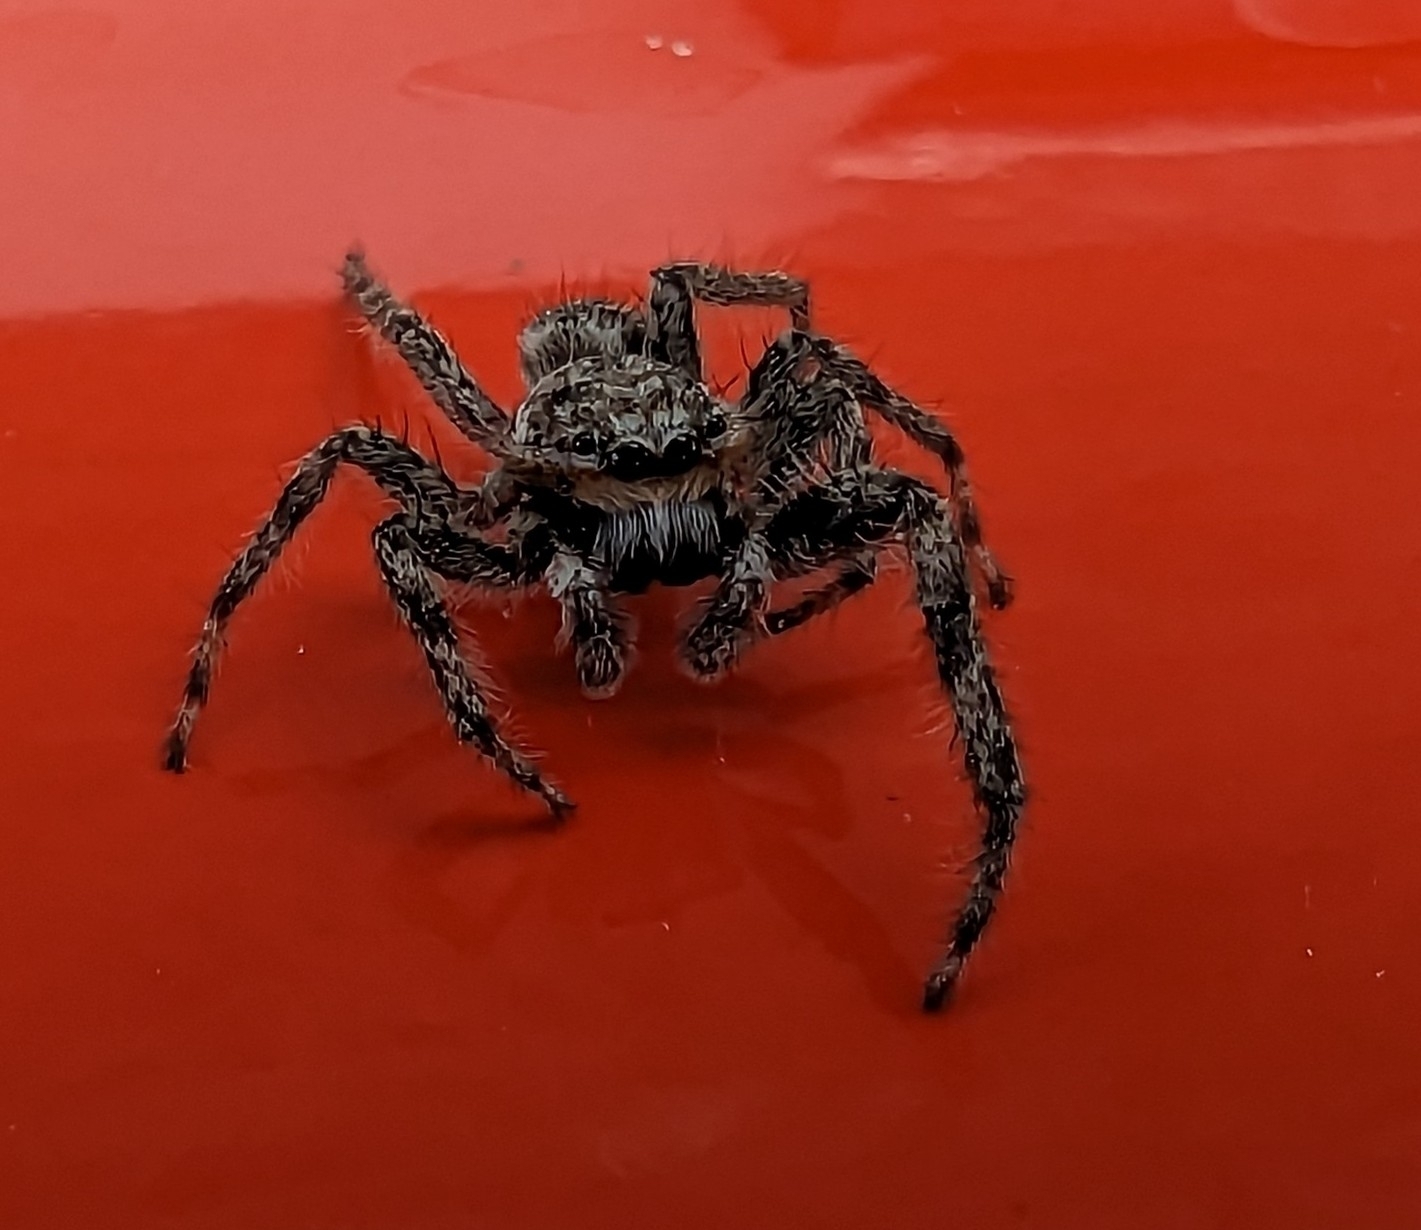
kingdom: Animalia
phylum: Arthropoda
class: Arachnida
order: Araneae
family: Salticidae
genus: Platycryptus
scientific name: Platycryptus undatus
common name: Tan jumping spider
